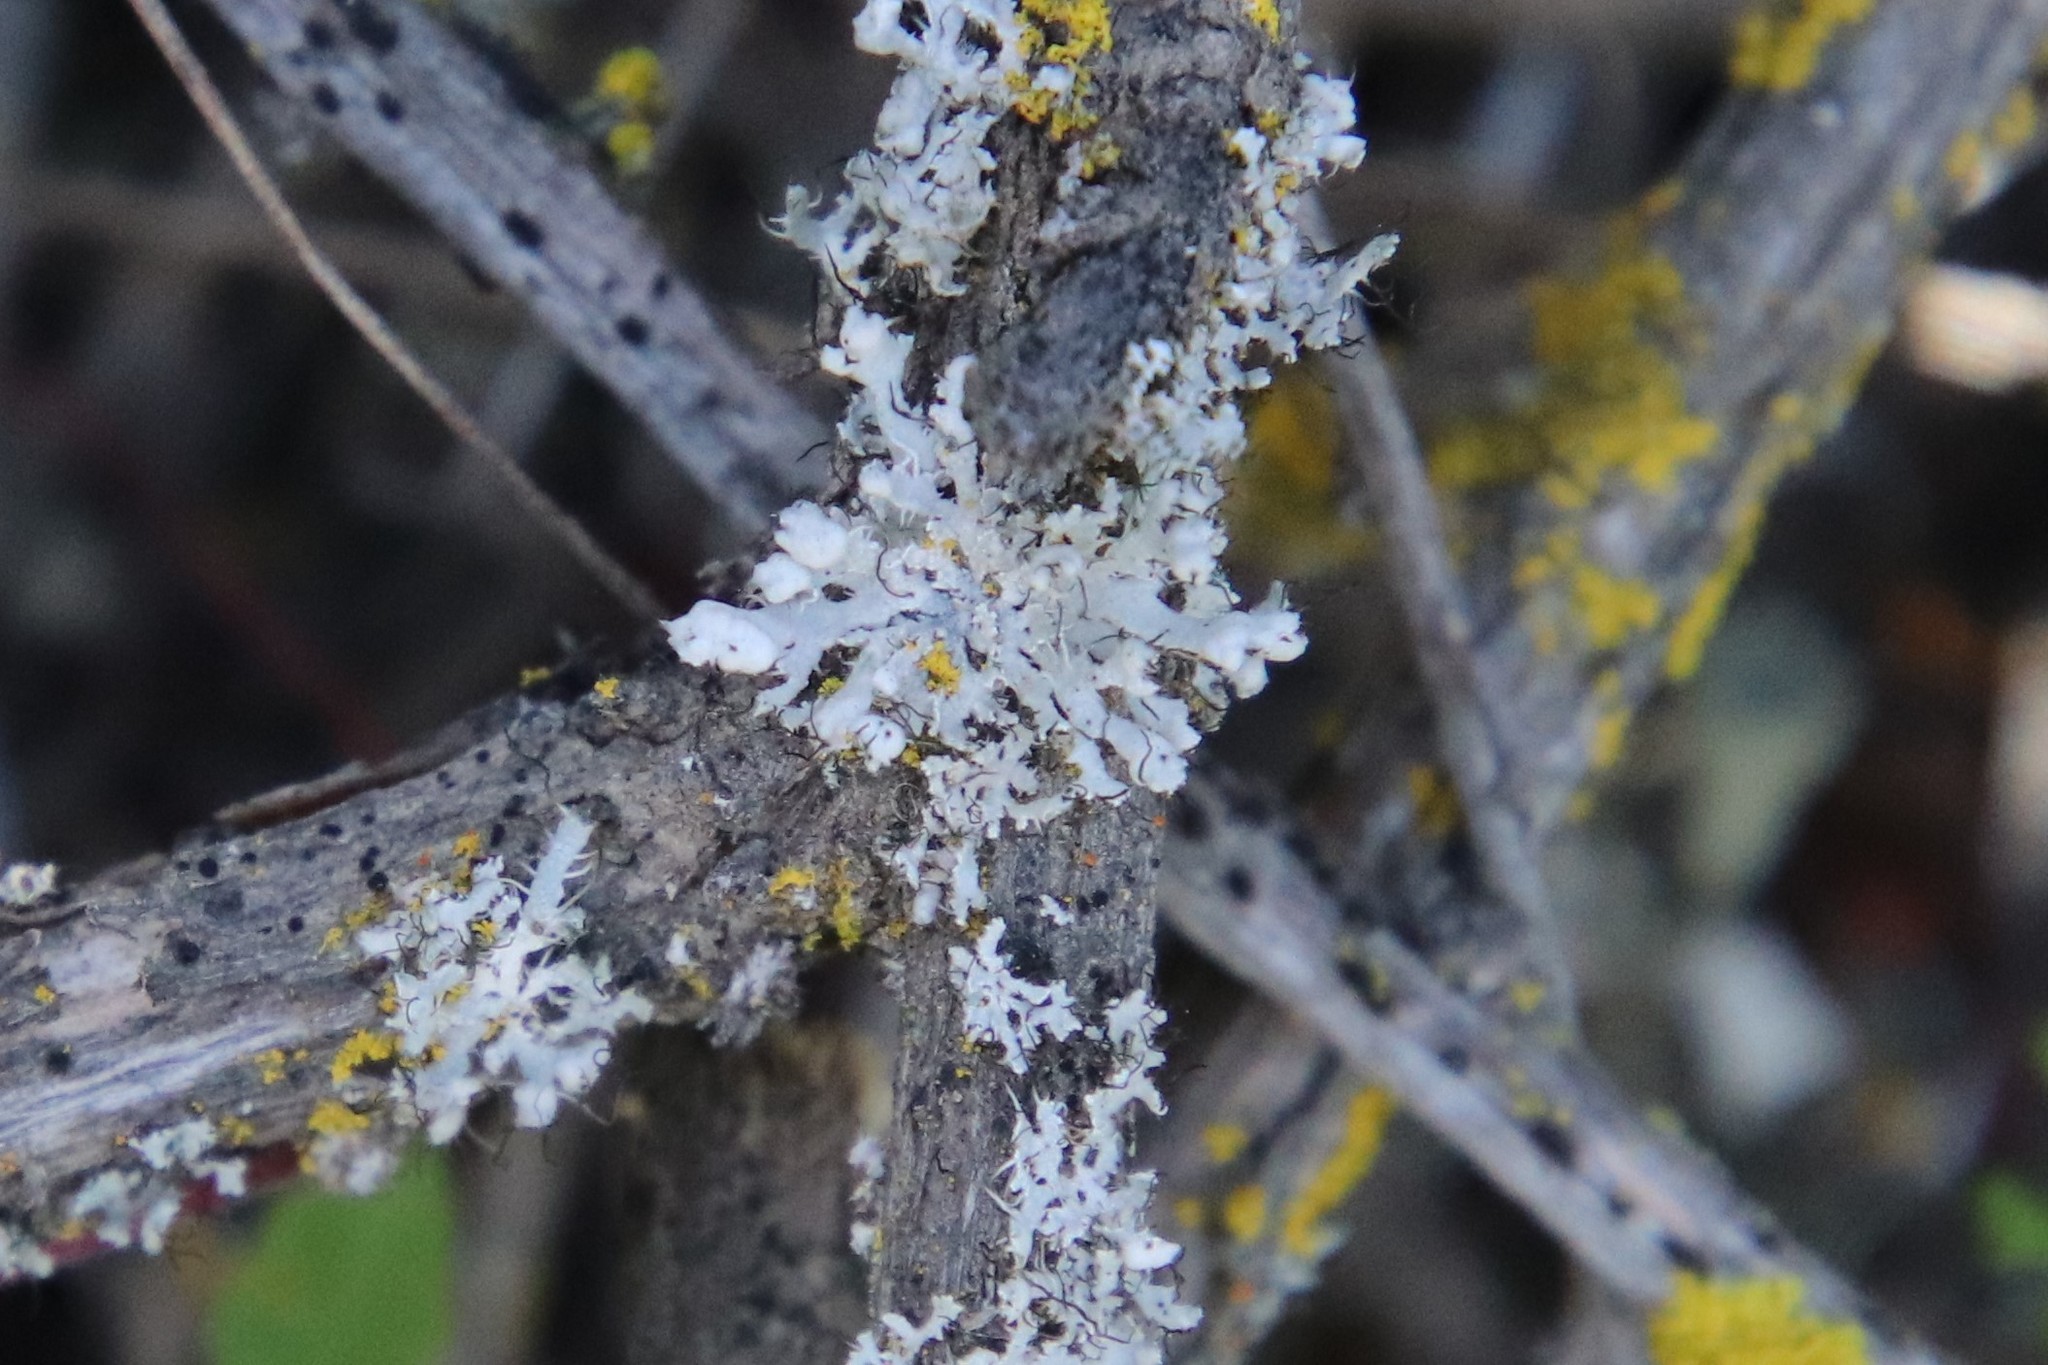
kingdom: Fungi
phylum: Ascomycota
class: Lecanoromycetes
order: Caliciales
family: Physciaceae
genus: Physcia
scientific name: Physcia adscendens
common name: Hooded rosette lichen
